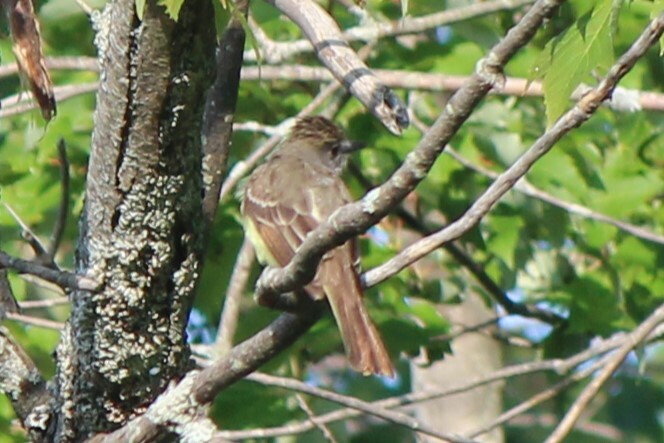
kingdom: Animalia
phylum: Chordata
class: Aves
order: Passeriformes
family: Tyrannidae
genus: Myiarchus
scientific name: Myiarchus crinitus
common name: Great crested flycatcher
